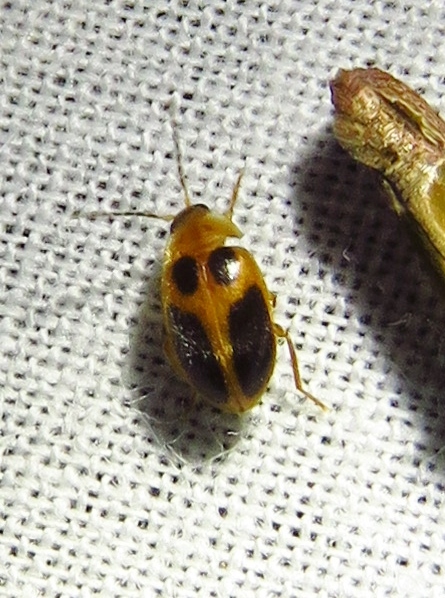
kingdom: Animalia
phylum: Arthropoda
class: Insecta
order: Coleoptera
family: Scirtidae
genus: Sacodes
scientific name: Sacodes pulchella
